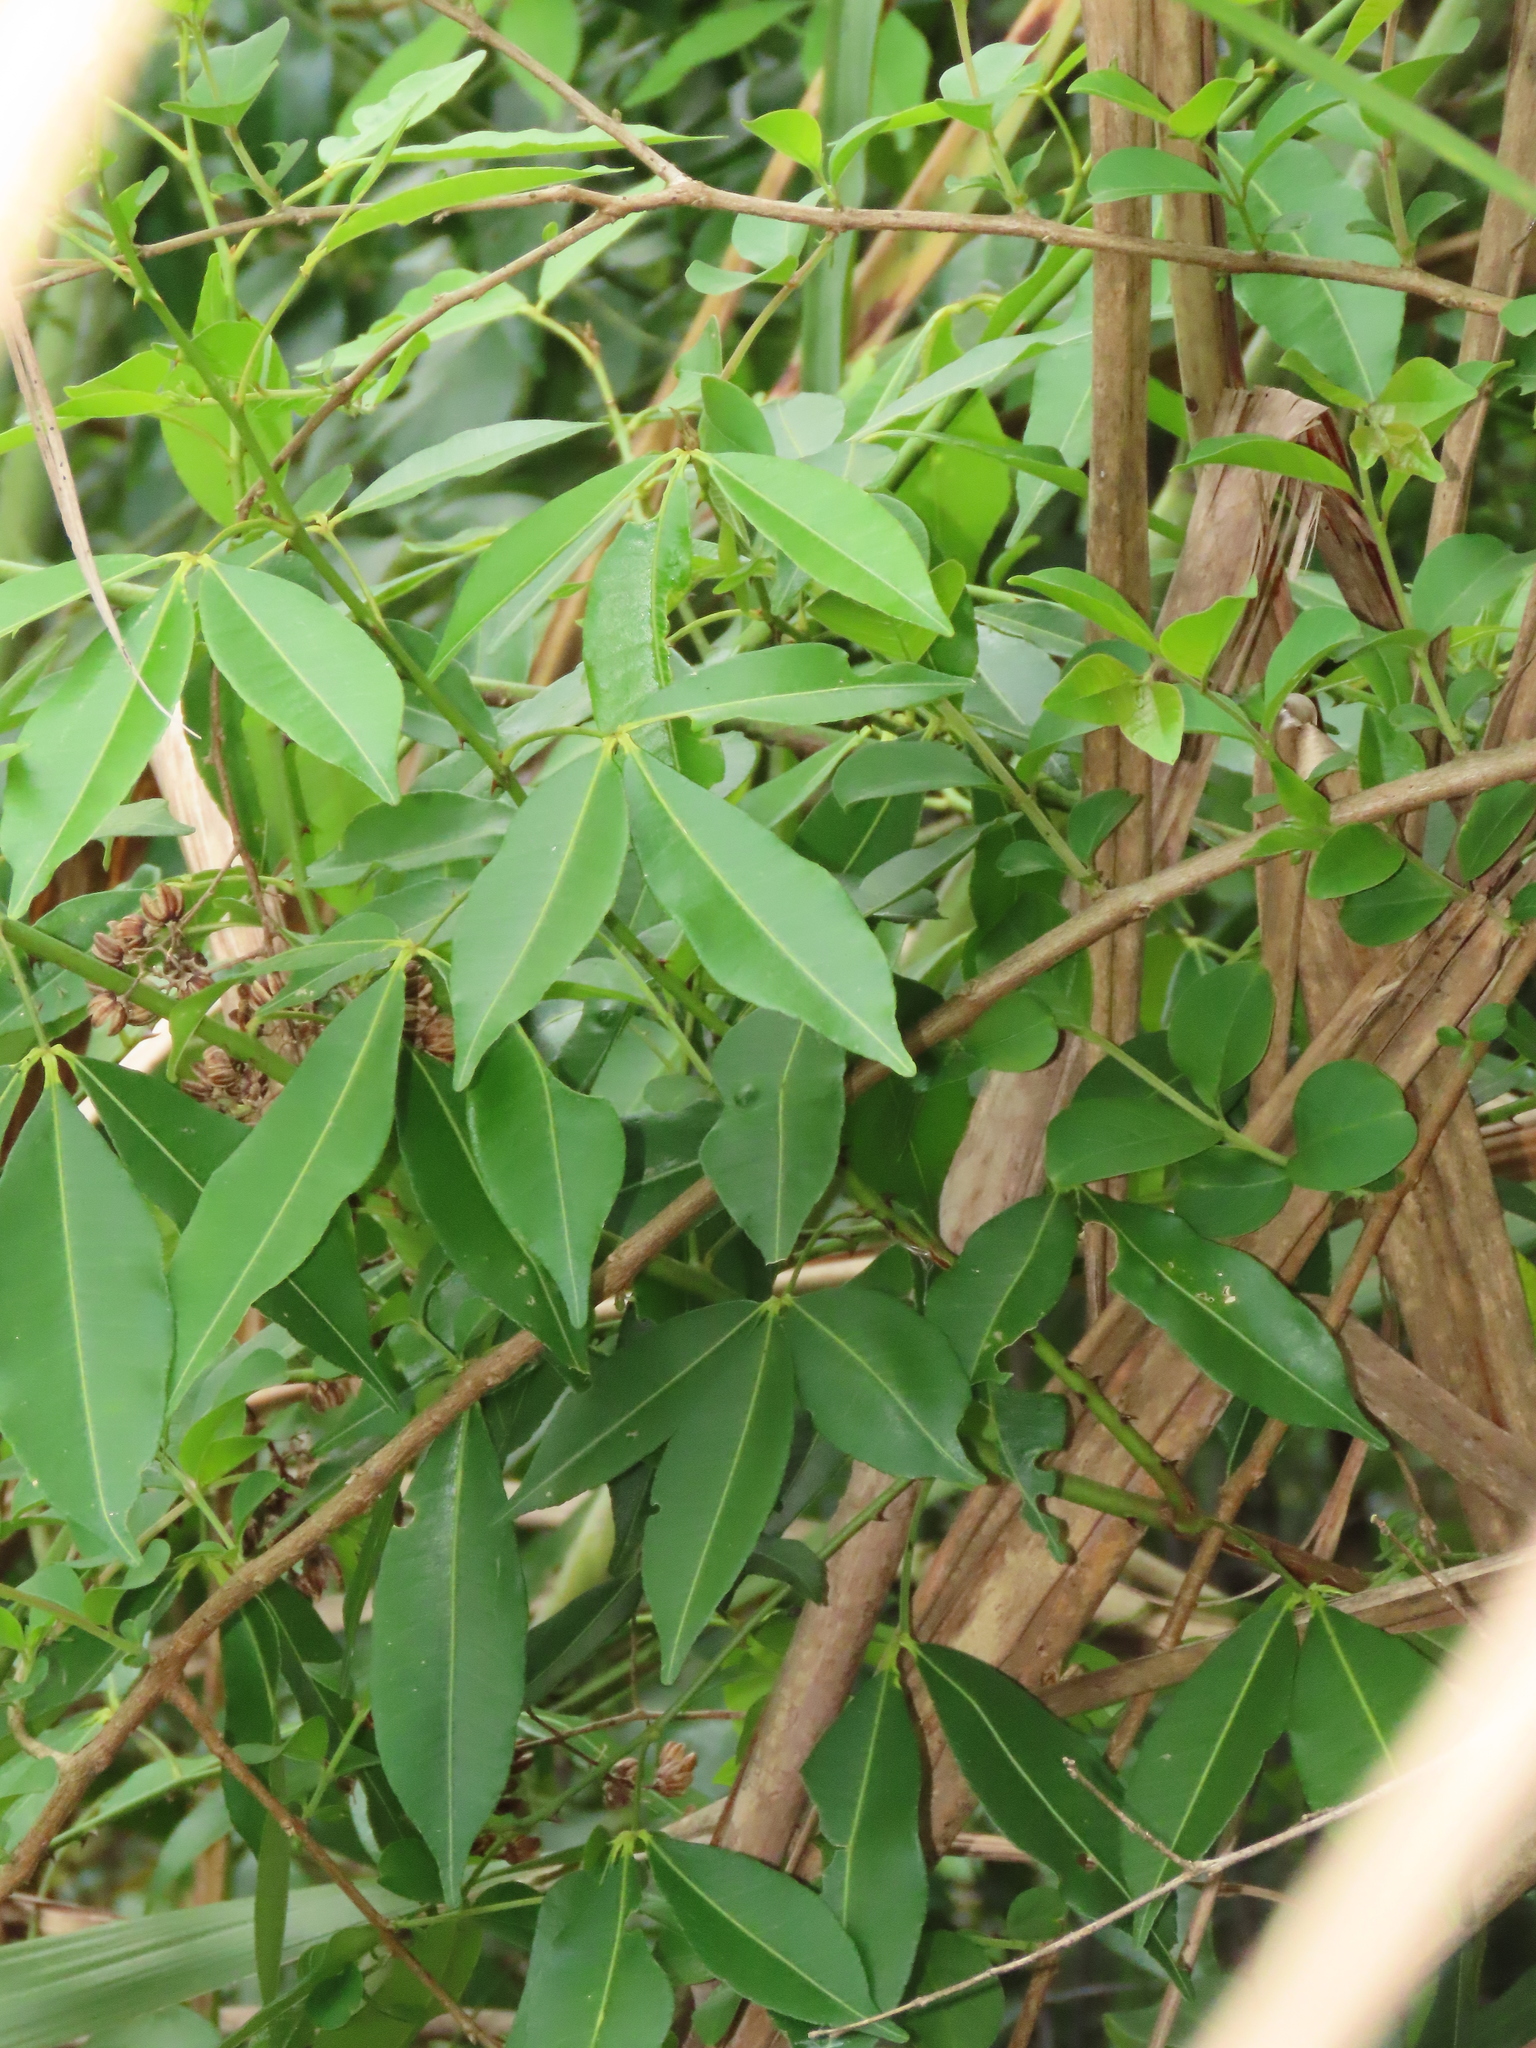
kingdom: Plantae
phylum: Tracheophyta
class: Magnoliopsida
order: Sapindales
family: Rutaceae
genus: Zanthoxylum
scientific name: Zanthoxylum asiaticum
